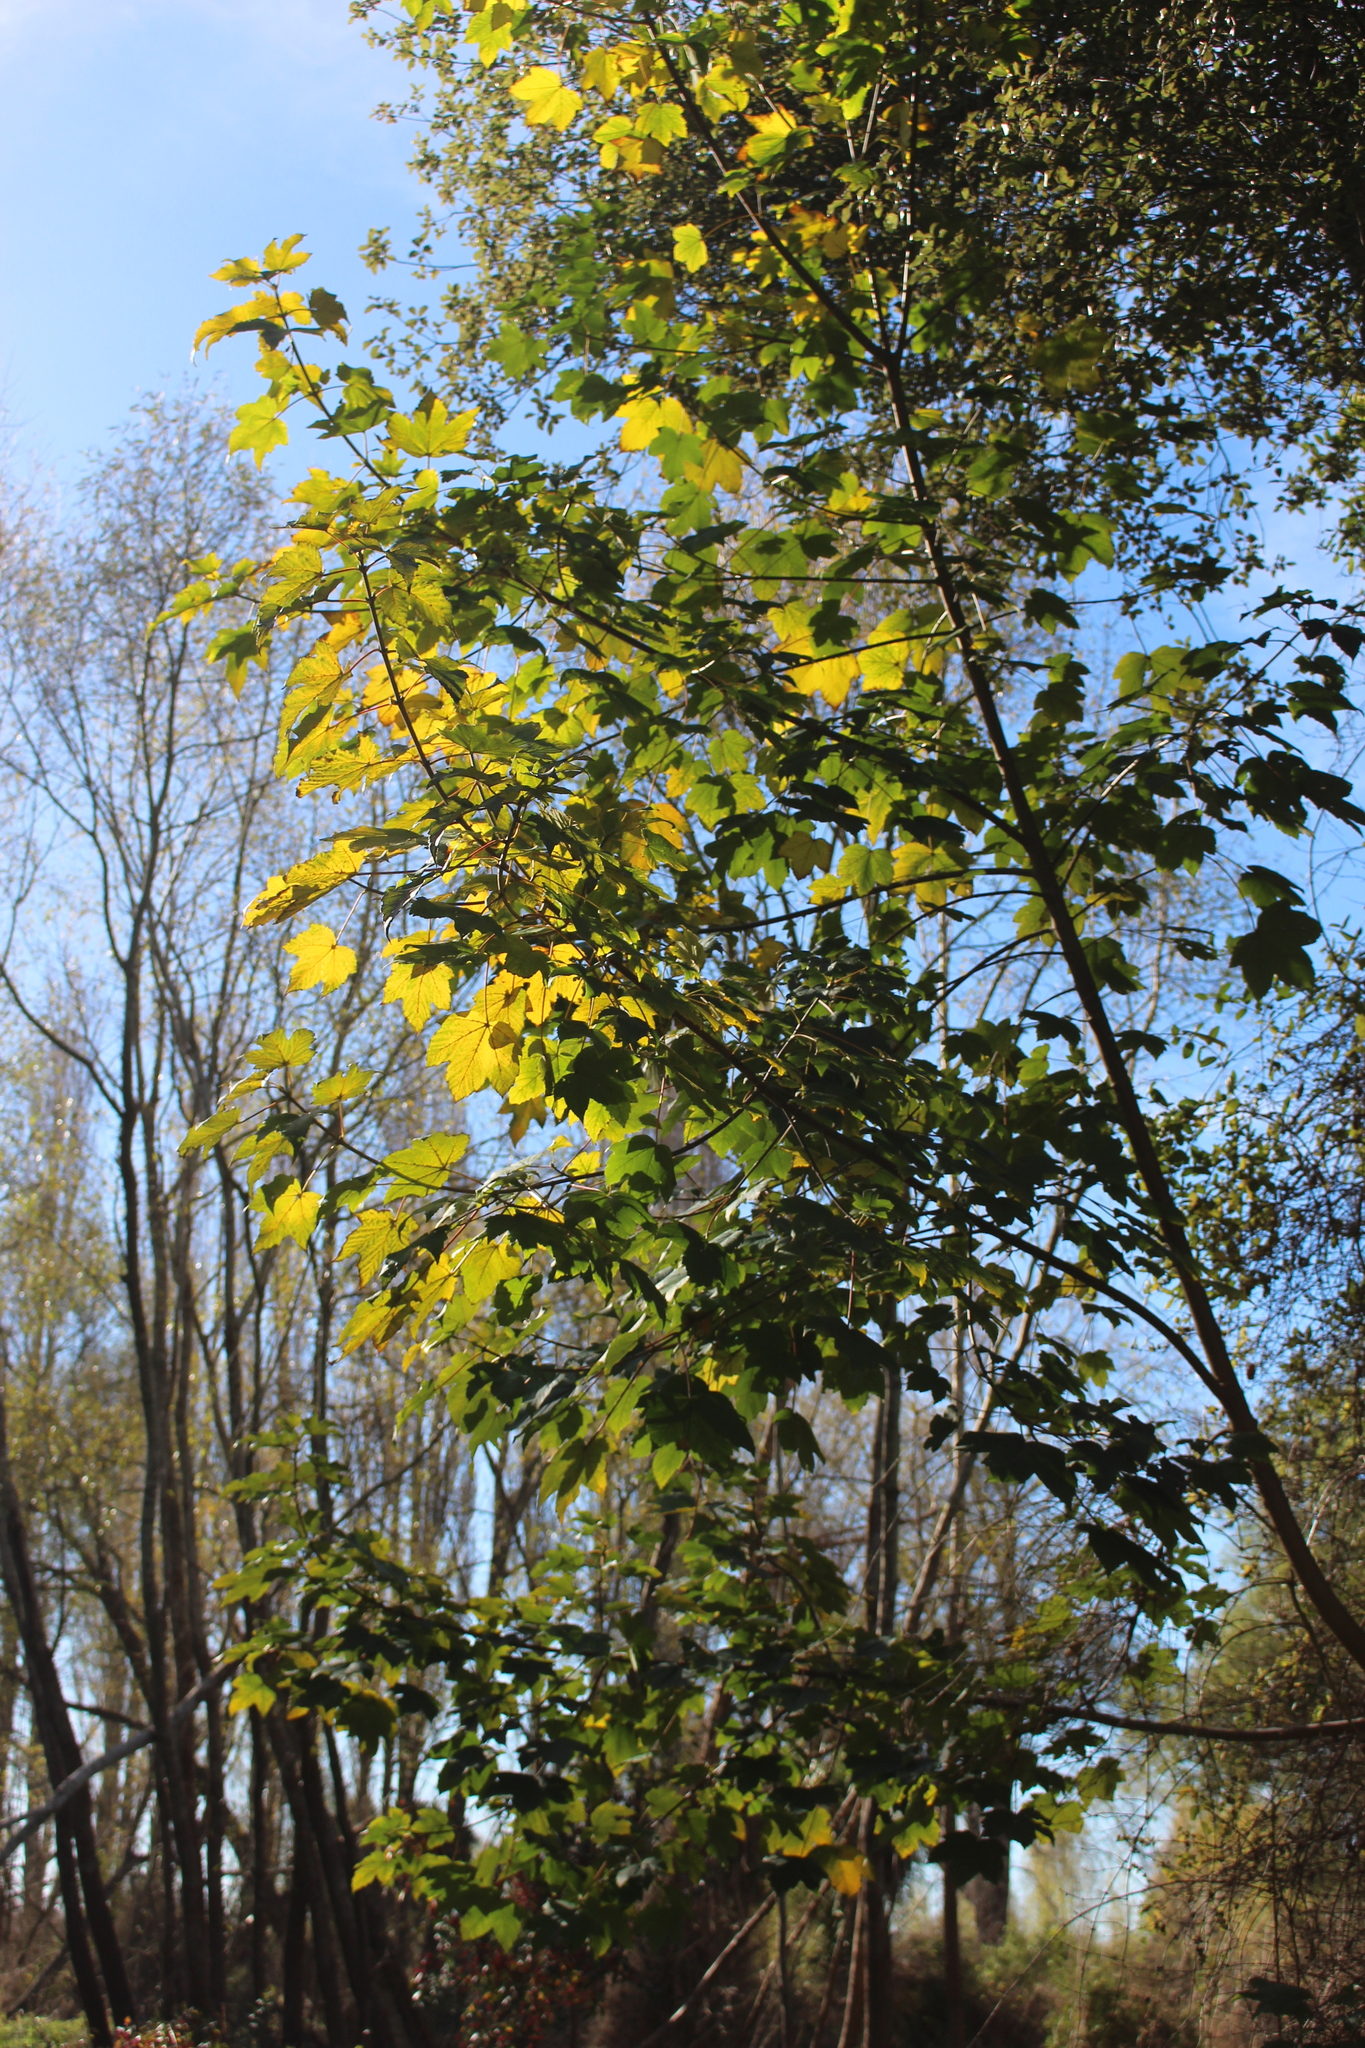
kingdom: Plantae
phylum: Tracheophyta
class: Magnoliopsida
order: Sapindales
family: Sapindaceae
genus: Acer
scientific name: Acer pseudoplatanus
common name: Sycamore
